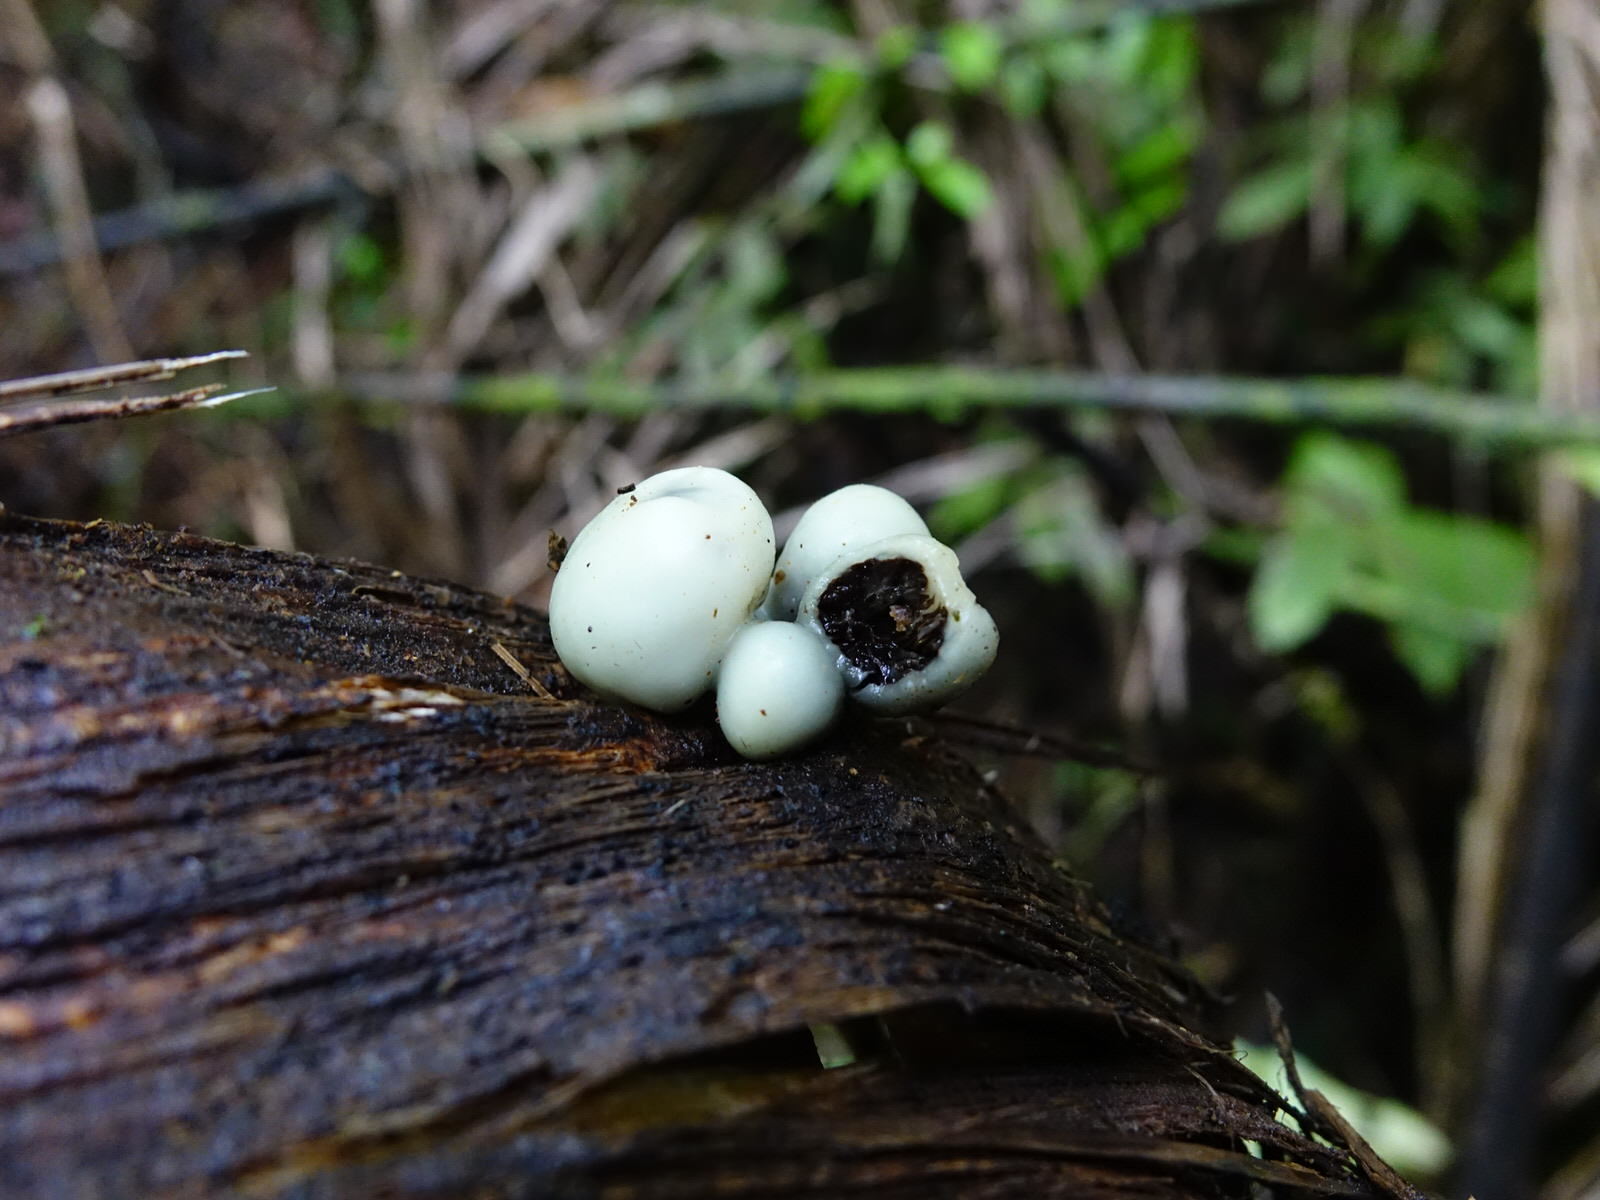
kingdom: Fungi
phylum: Basidiomycota
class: Agaricomycetes
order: Agaricales
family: Hymenogastraceae
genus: Psilocybe
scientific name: Psilocybe weraroa
